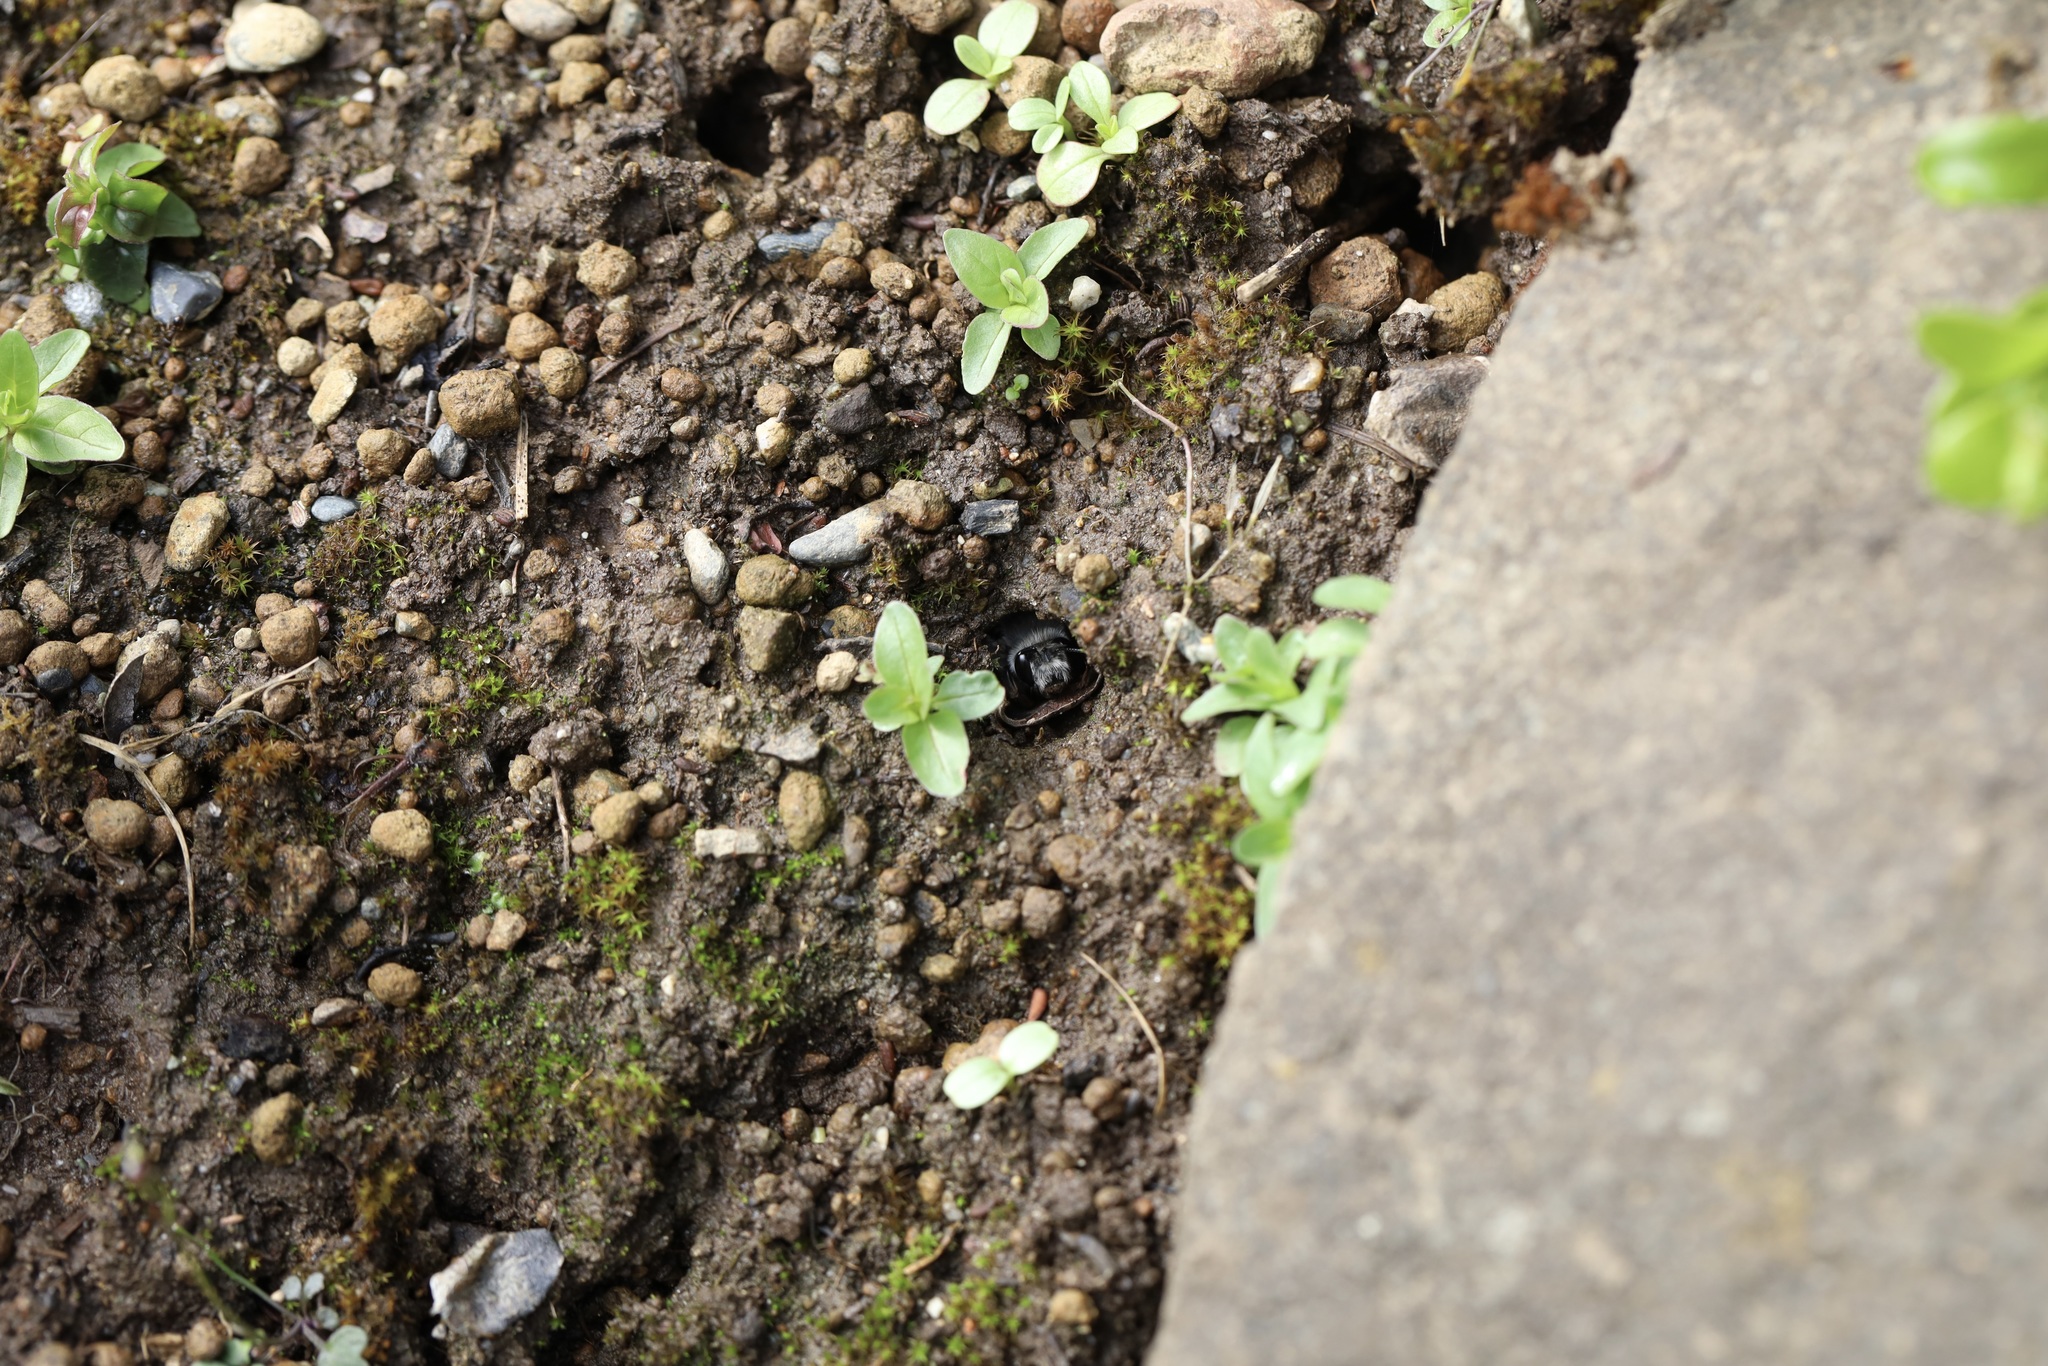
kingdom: Animalia
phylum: Arthropoda
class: Insecta
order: Hymenoptera
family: Apidae
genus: Anthophora
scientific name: Anthophora pacifica
